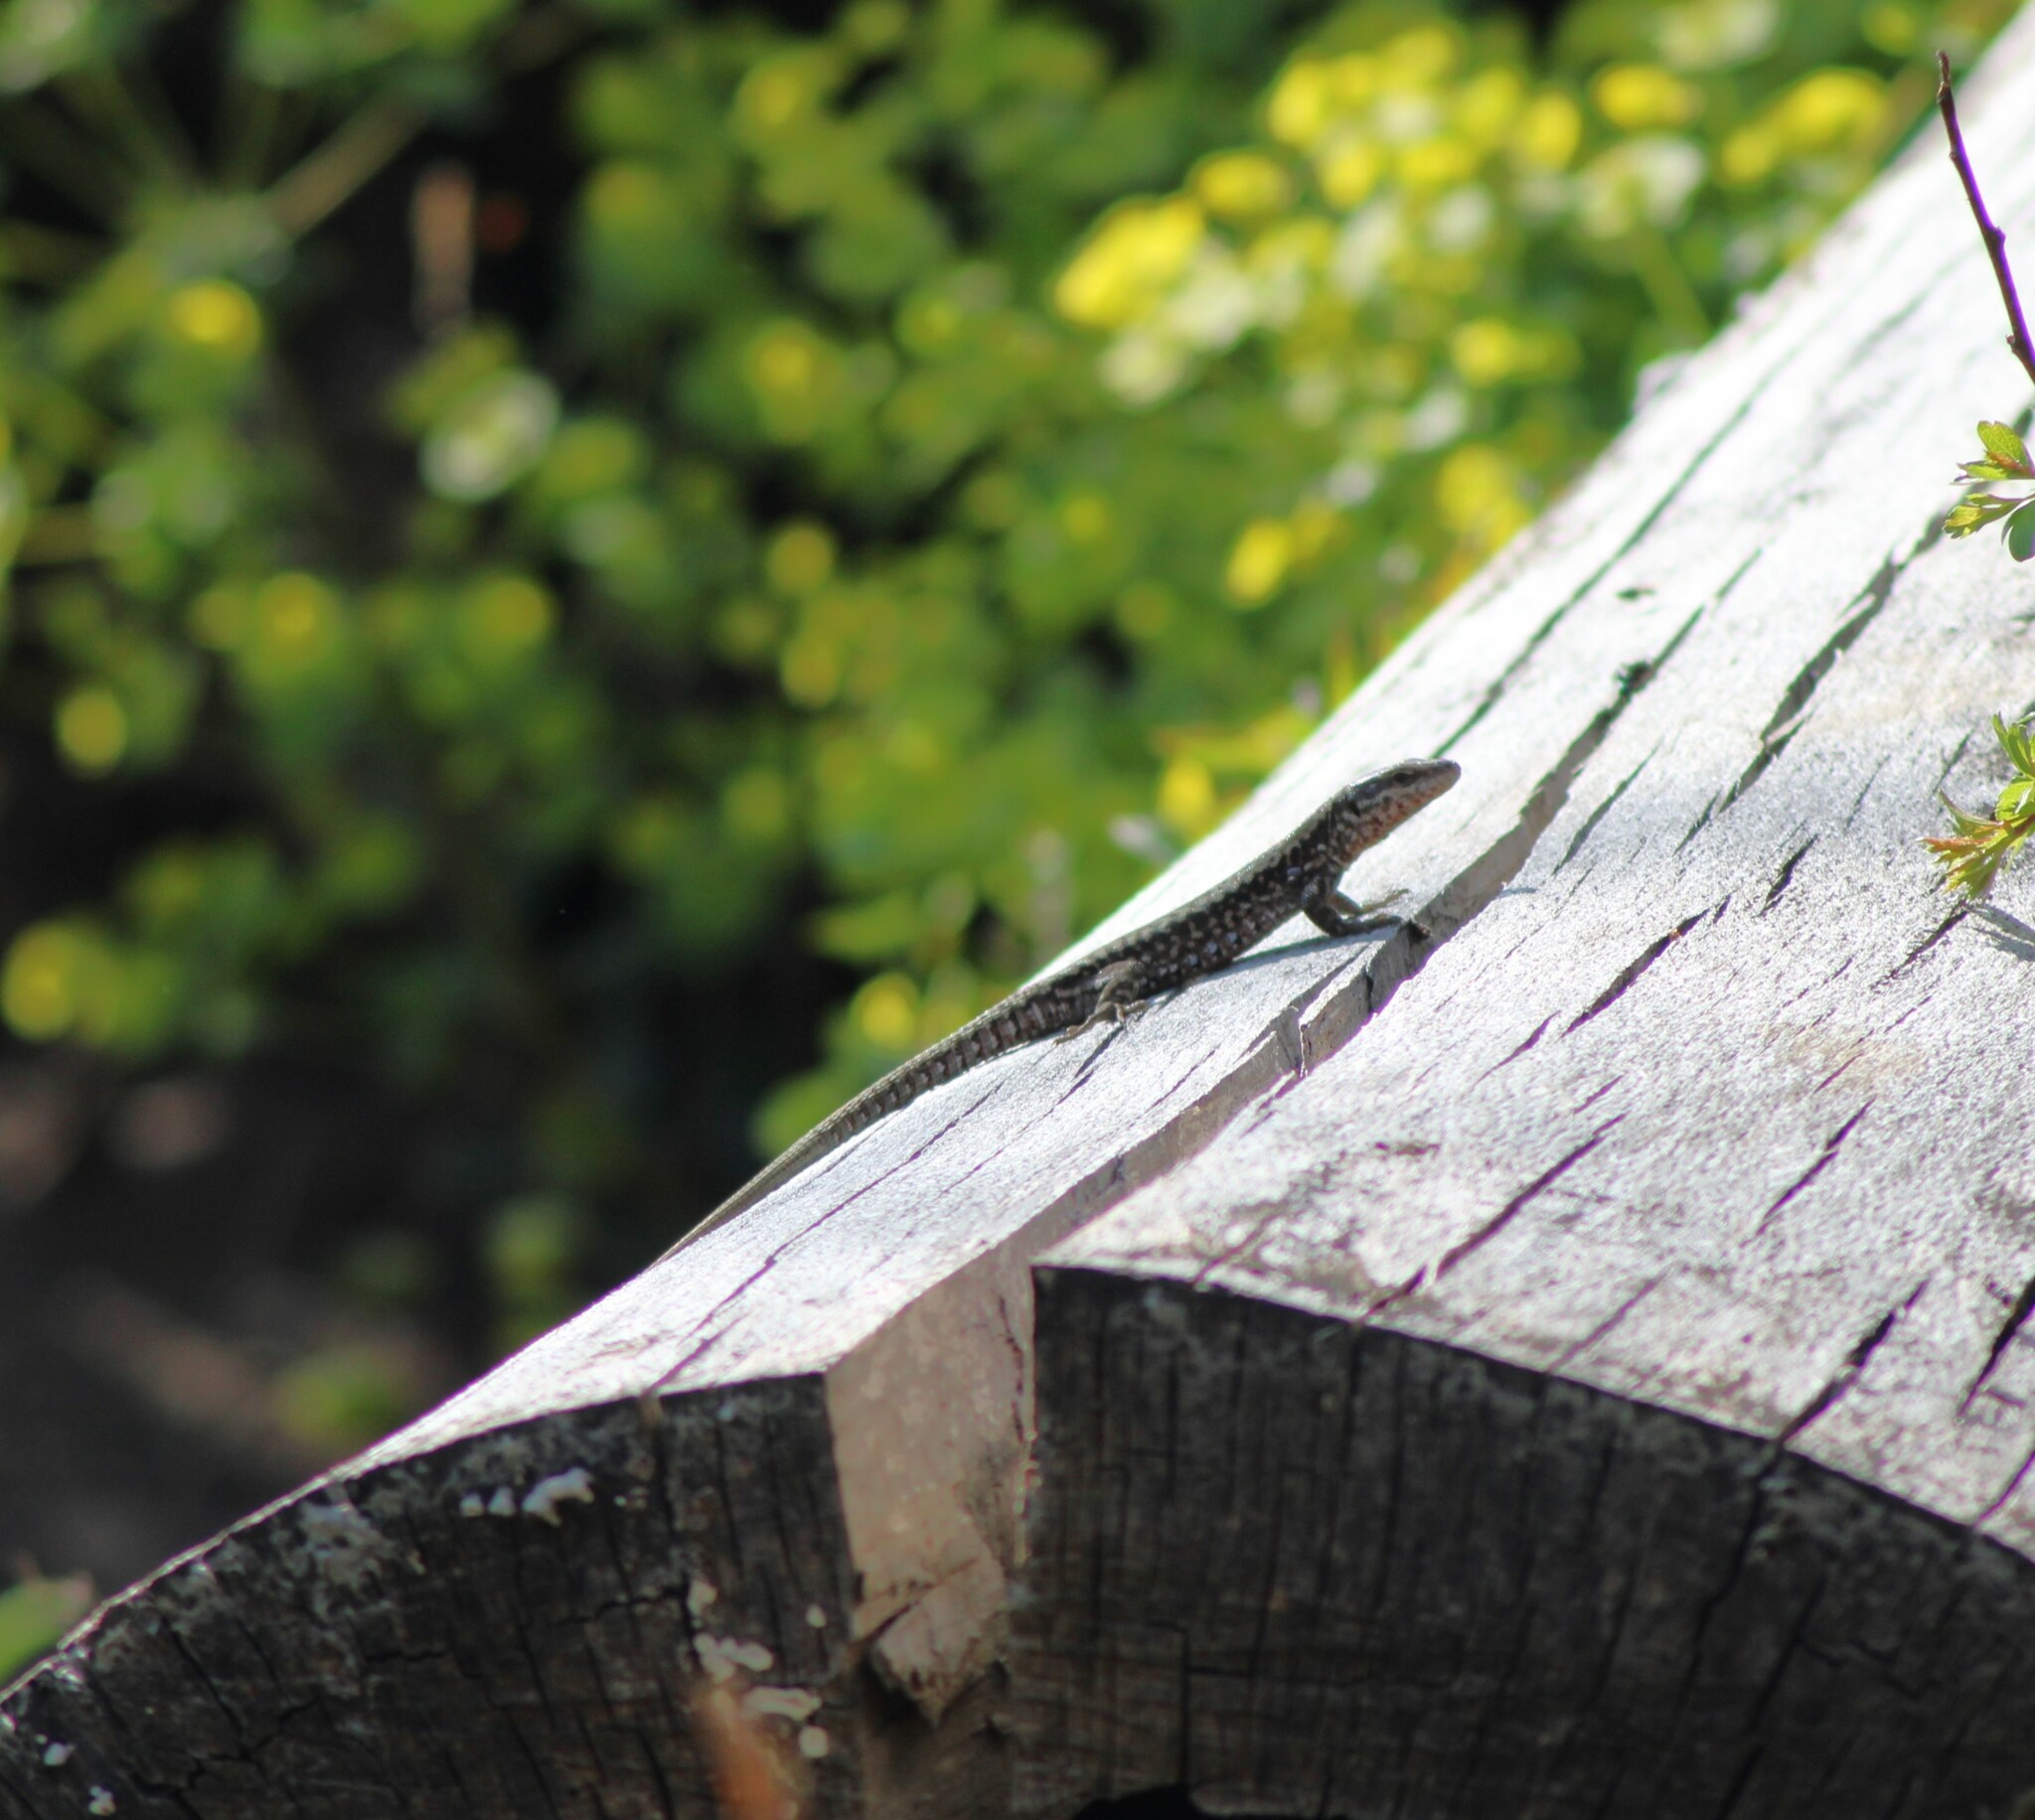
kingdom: Animalia
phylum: Chordata
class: Squamata
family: Lacertidae
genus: Podarcis
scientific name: Podarcis muralis
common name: Common wall lizard
